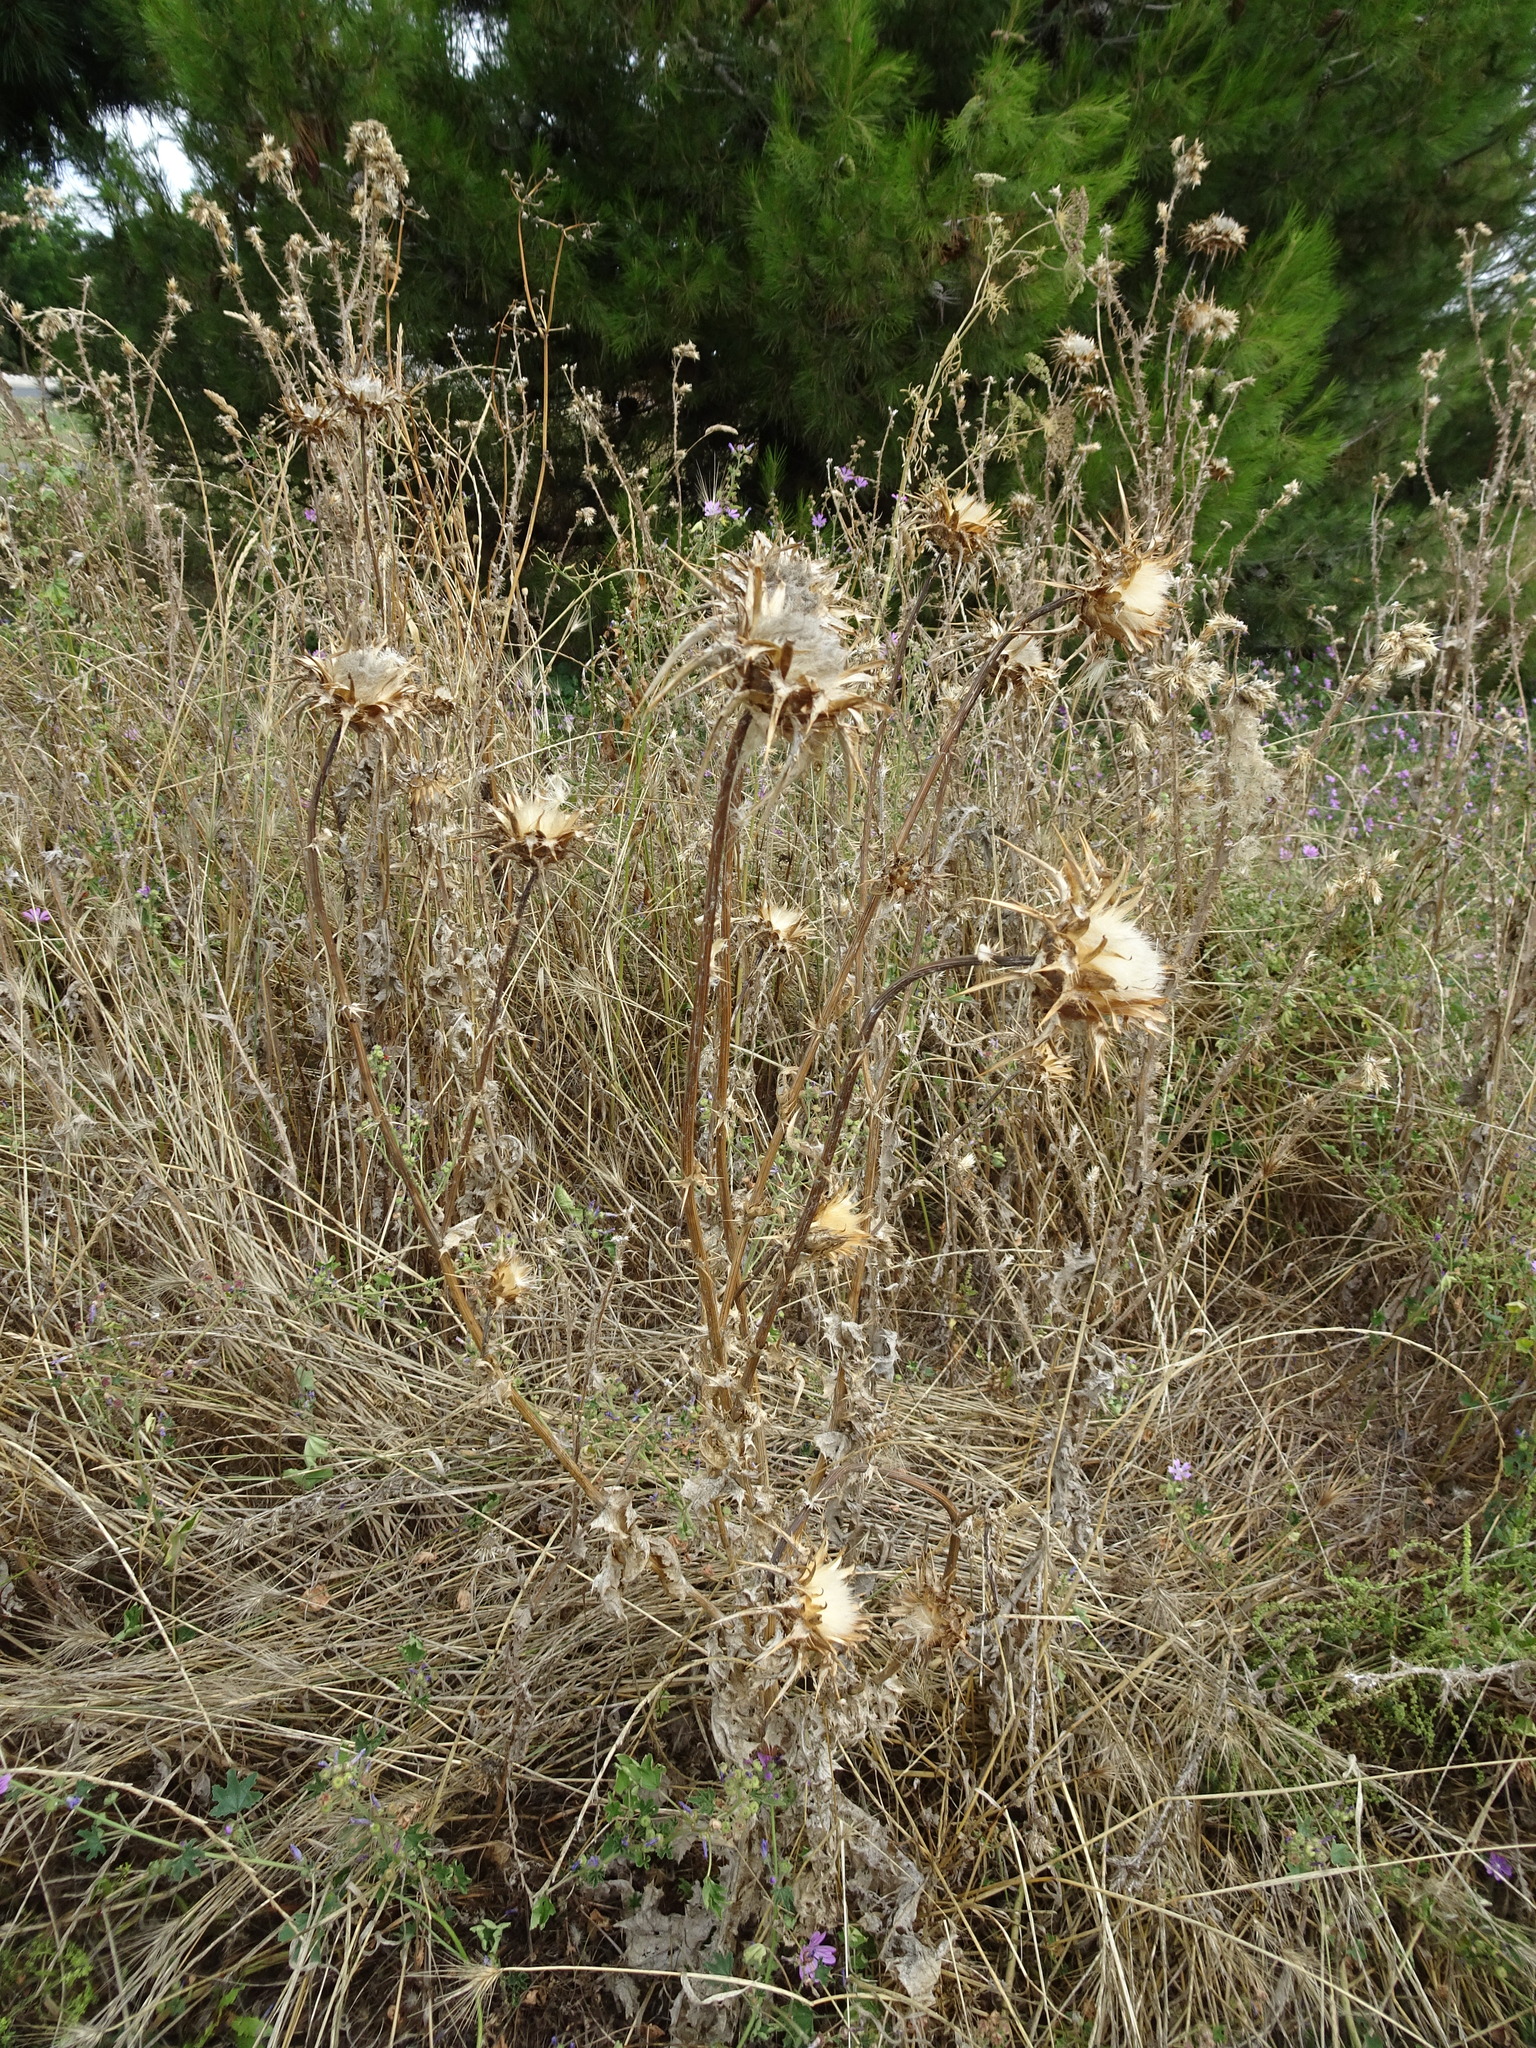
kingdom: Plantae
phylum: Tracheophyta
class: Magnoliopsida
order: Asterales
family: Asteraceae
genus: Silybum
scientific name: Silybum marianum
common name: Milk thistle
